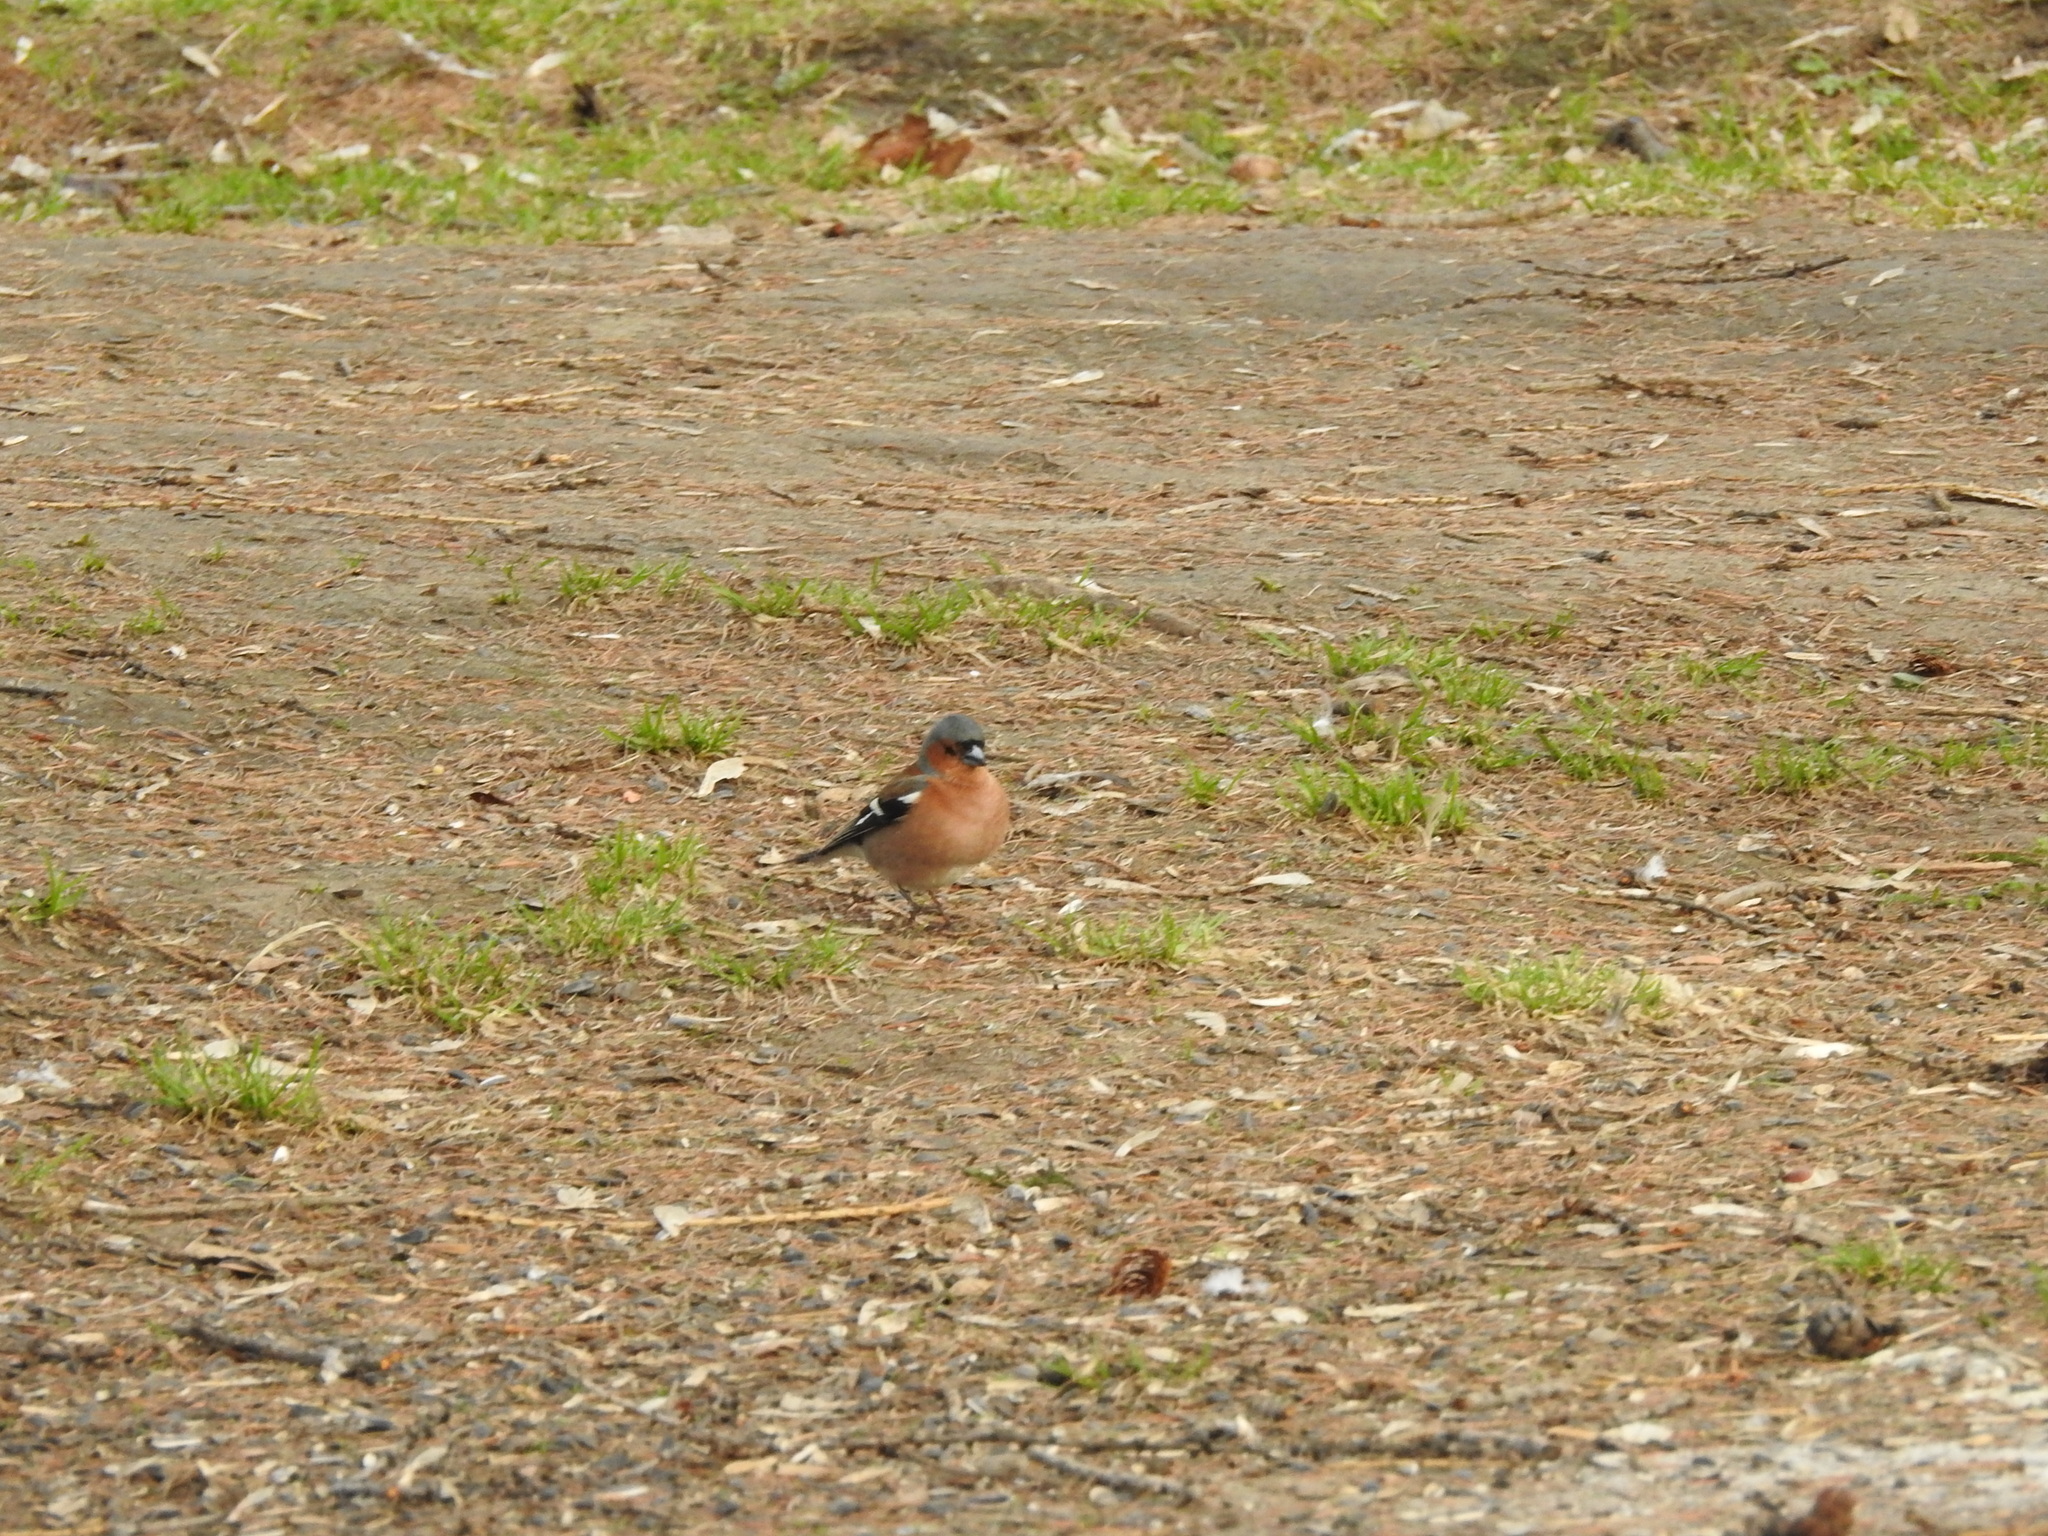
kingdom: Animalia
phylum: Chordata
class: Aves
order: Passeriformes
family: Fringillidae
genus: Fringilla
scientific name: Fringilla coelebs
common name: Common chaffinch
